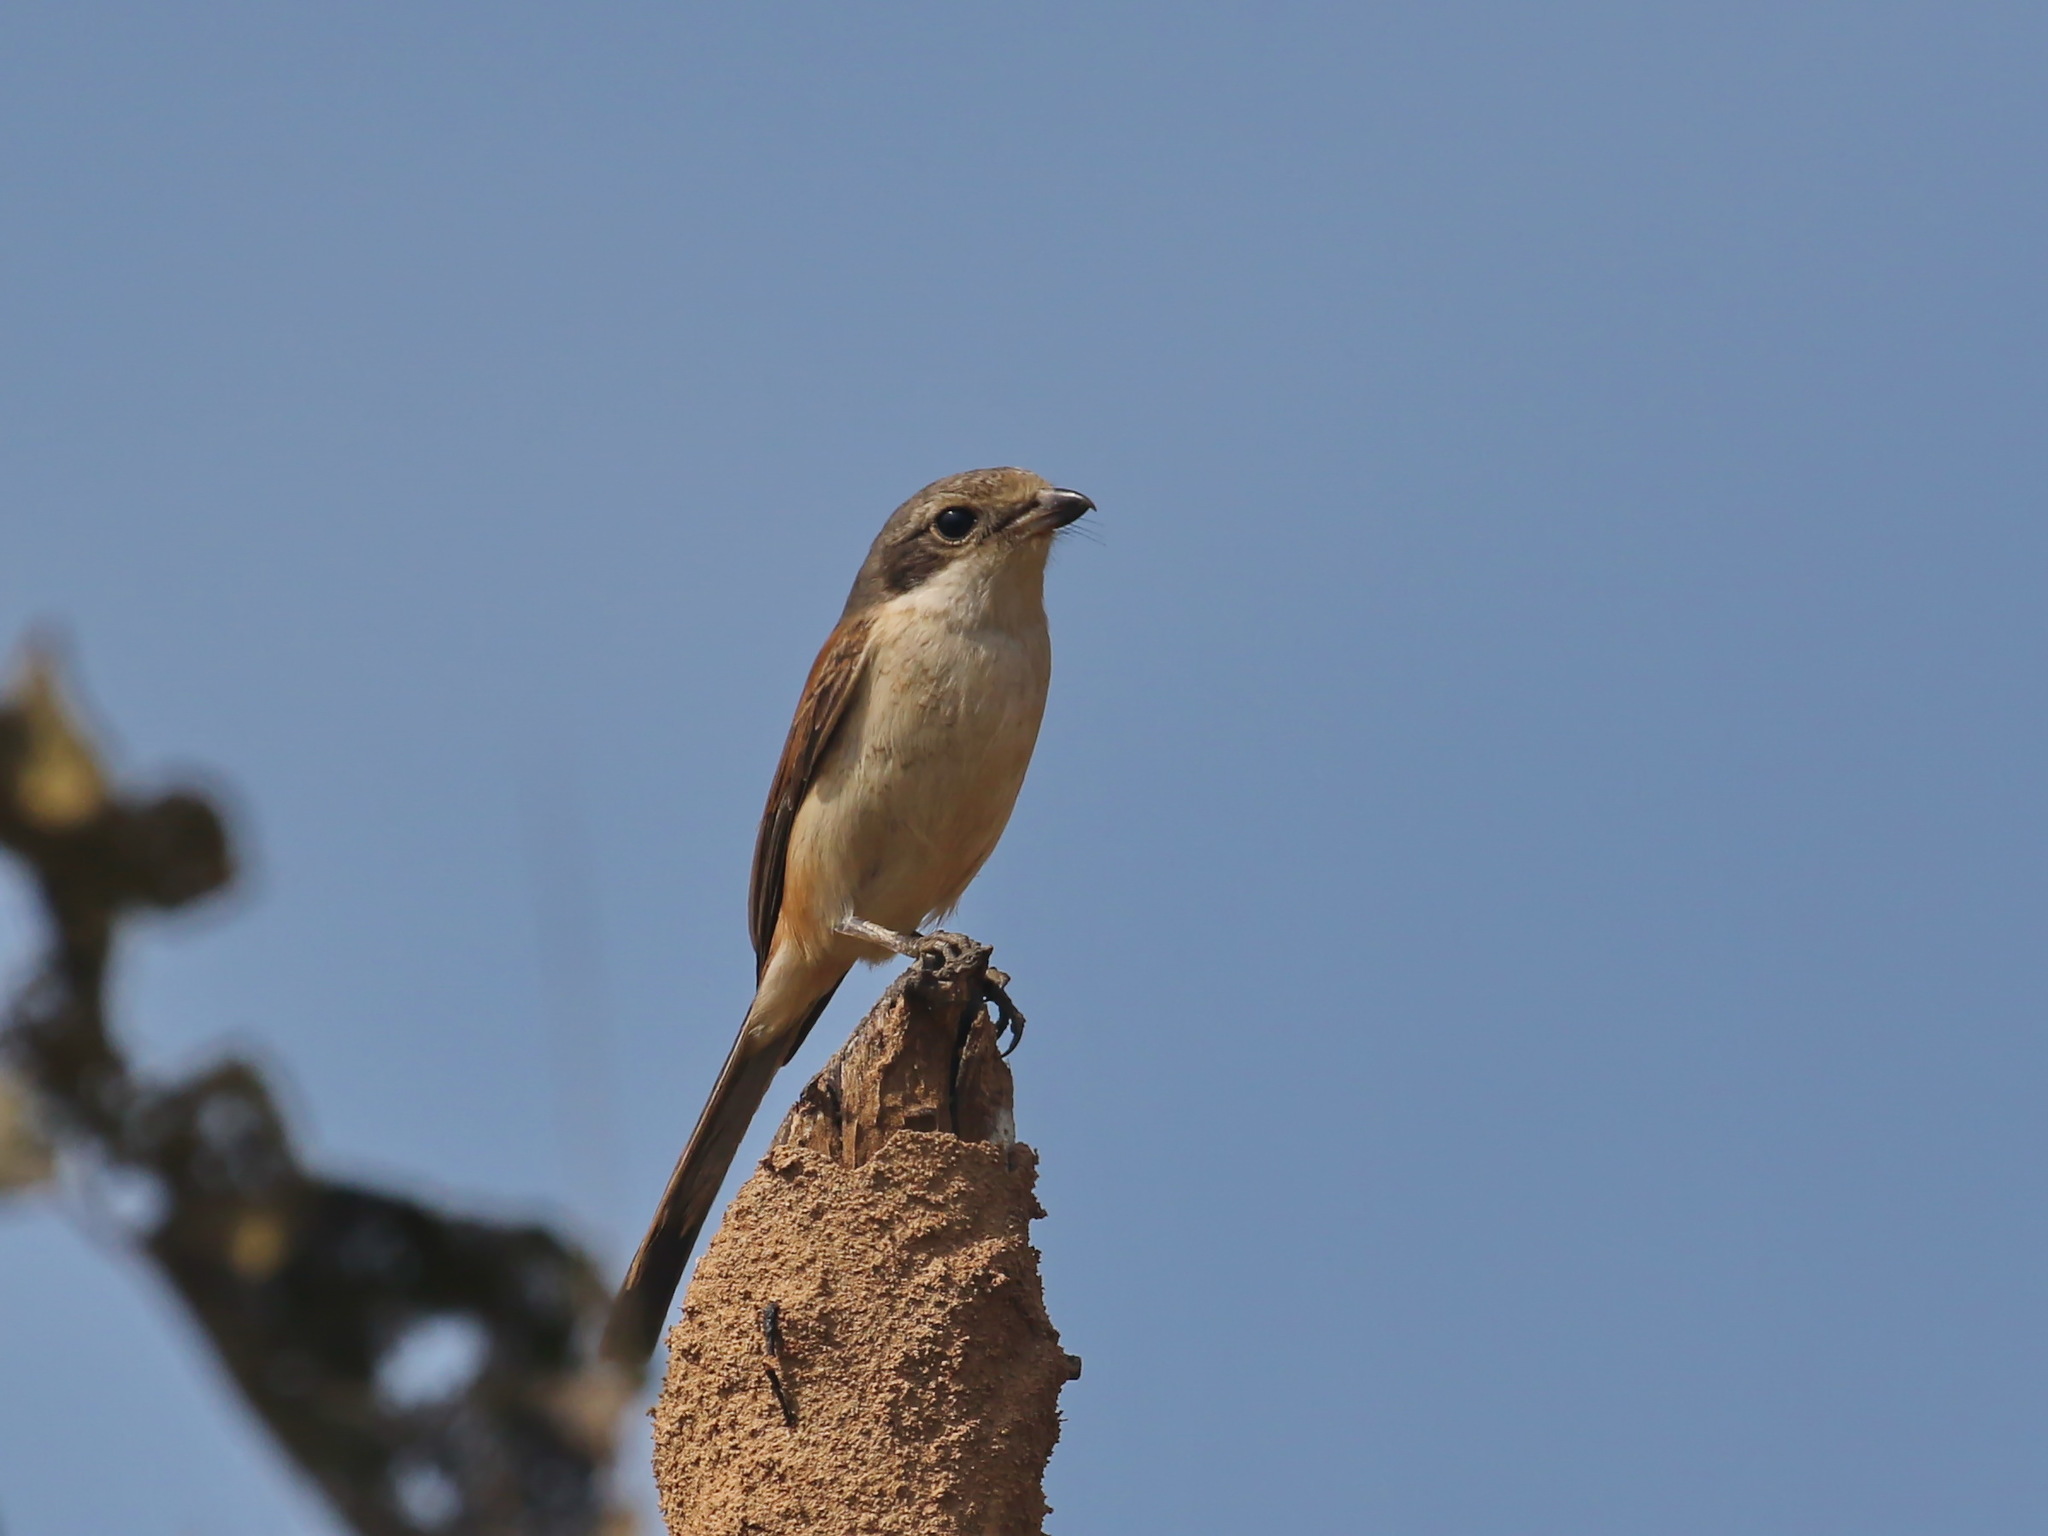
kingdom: Animalia
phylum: Chordata
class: Aves
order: Passeriformes
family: Laniidae
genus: Lanius
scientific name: Lanius collurioides
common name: Burmese shrike
